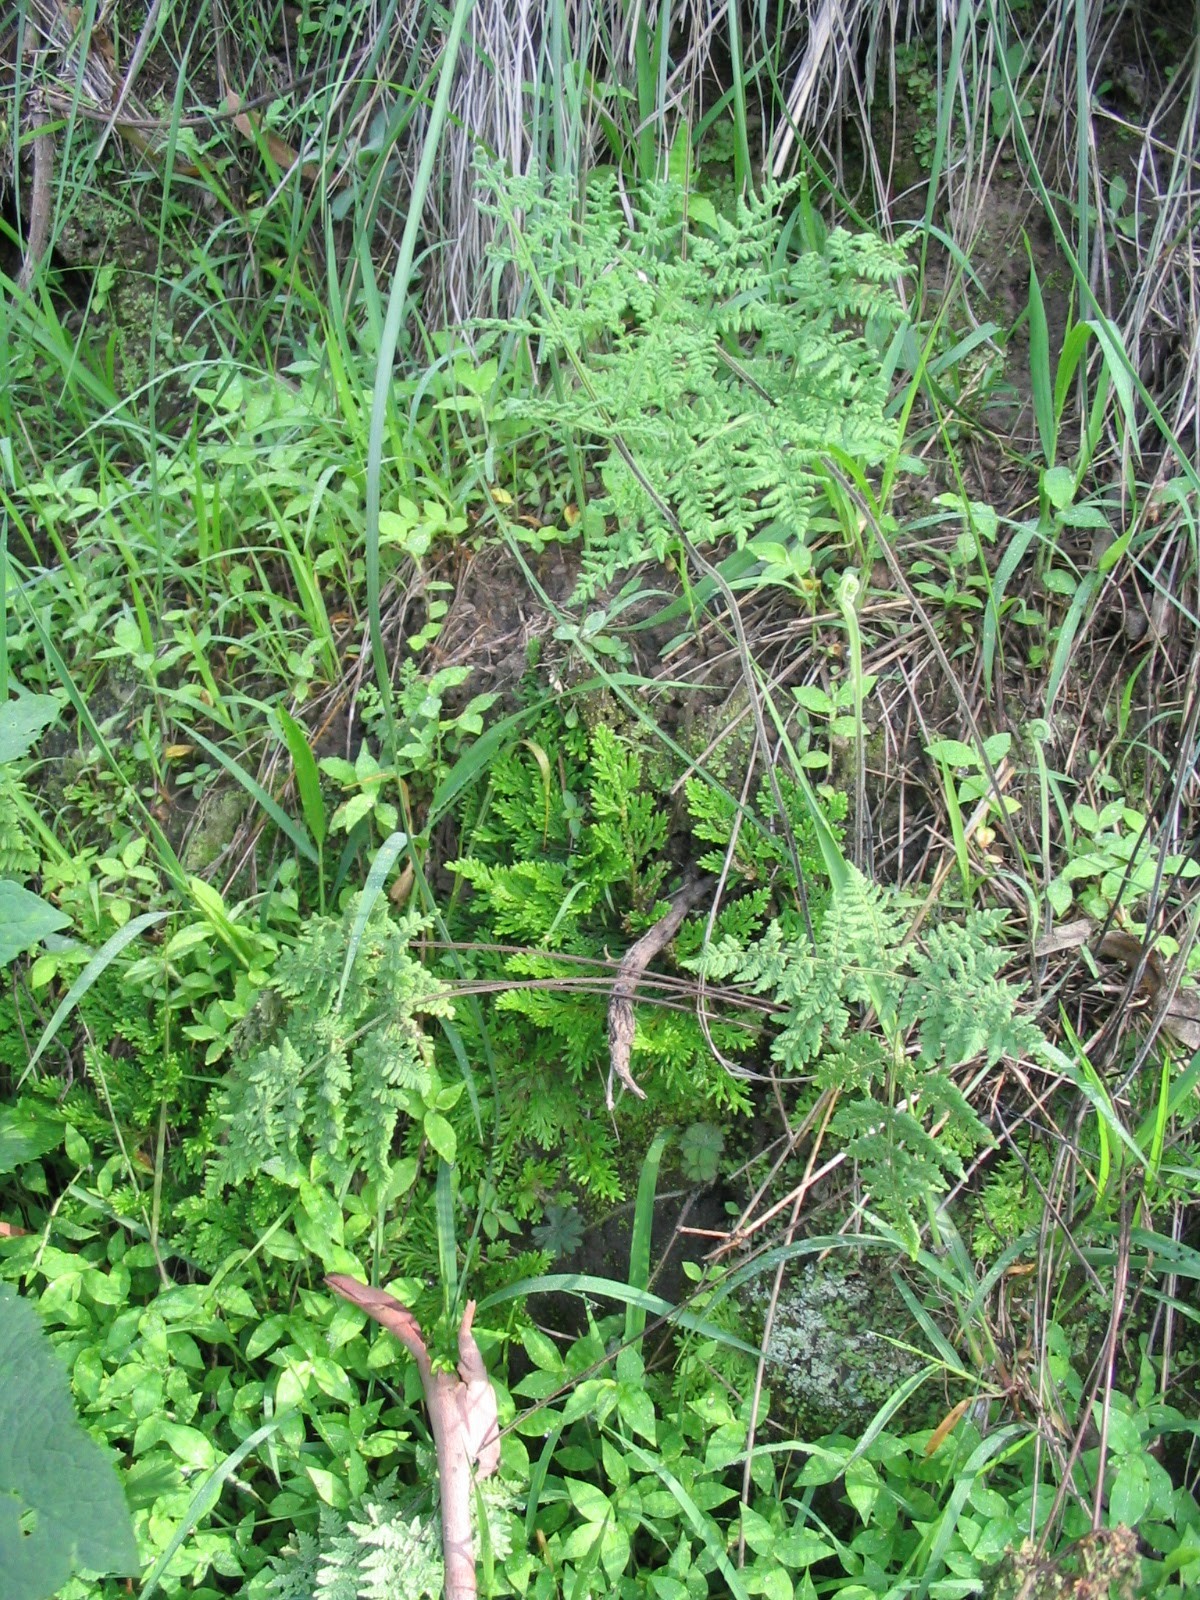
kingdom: Plantae
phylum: Tracheophyta
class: Polypodiopsida
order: Polypodiales
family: Pteridaceae
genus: Gaga
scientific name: Gaga kaulfussii
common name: Glandular lip fern
